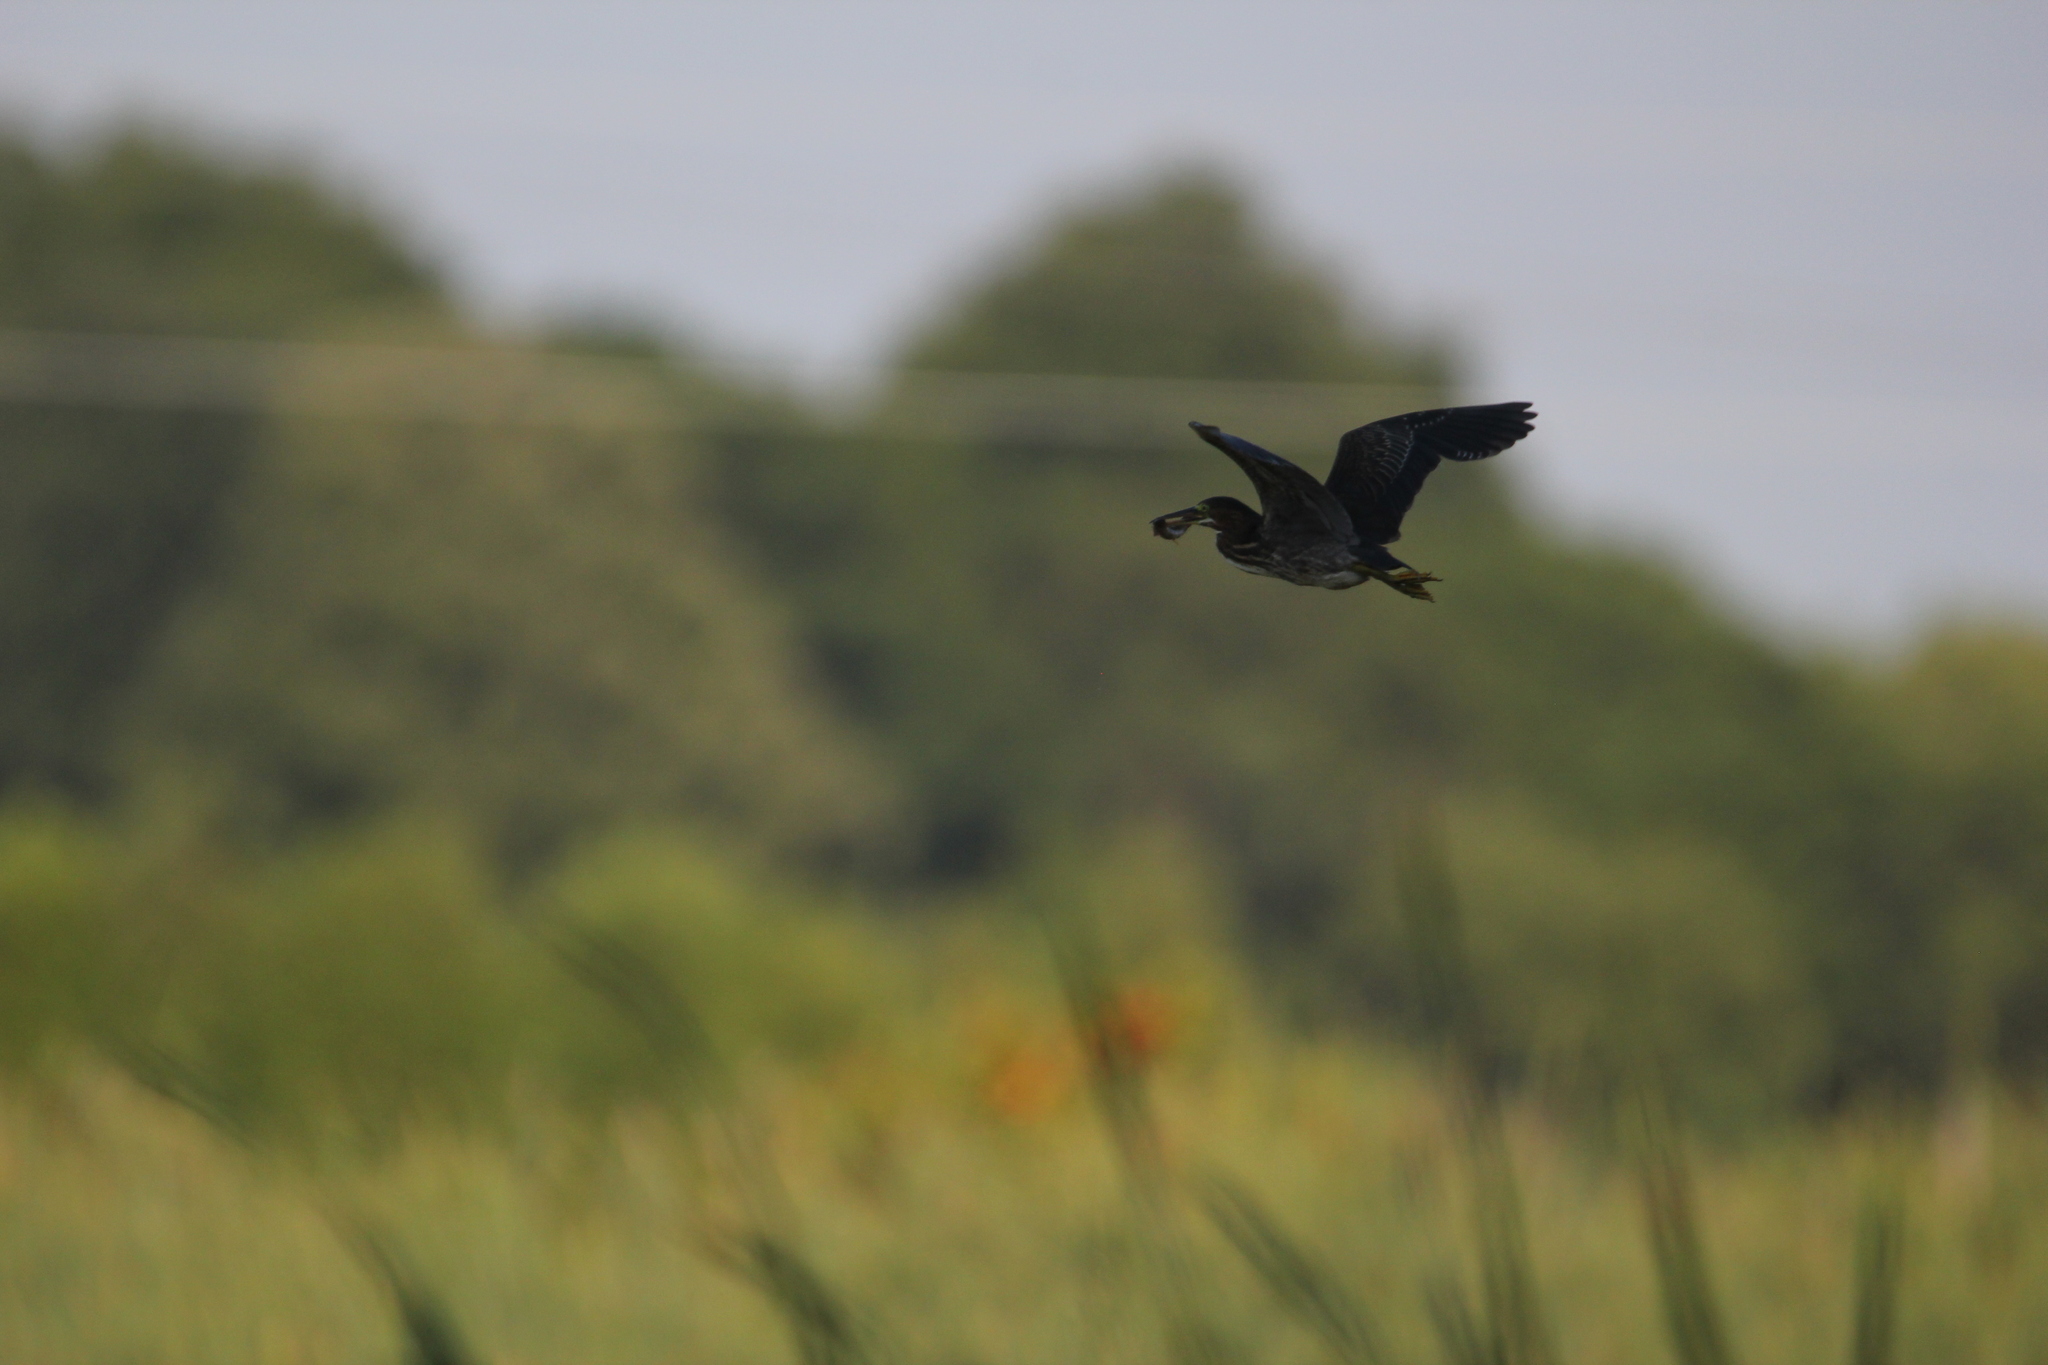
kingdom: Animalia
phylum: Chordata
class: Aves
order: Pelecaniformes
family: Ardeidae
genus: Butorides
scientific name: Butorides virescens
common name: Green heron
